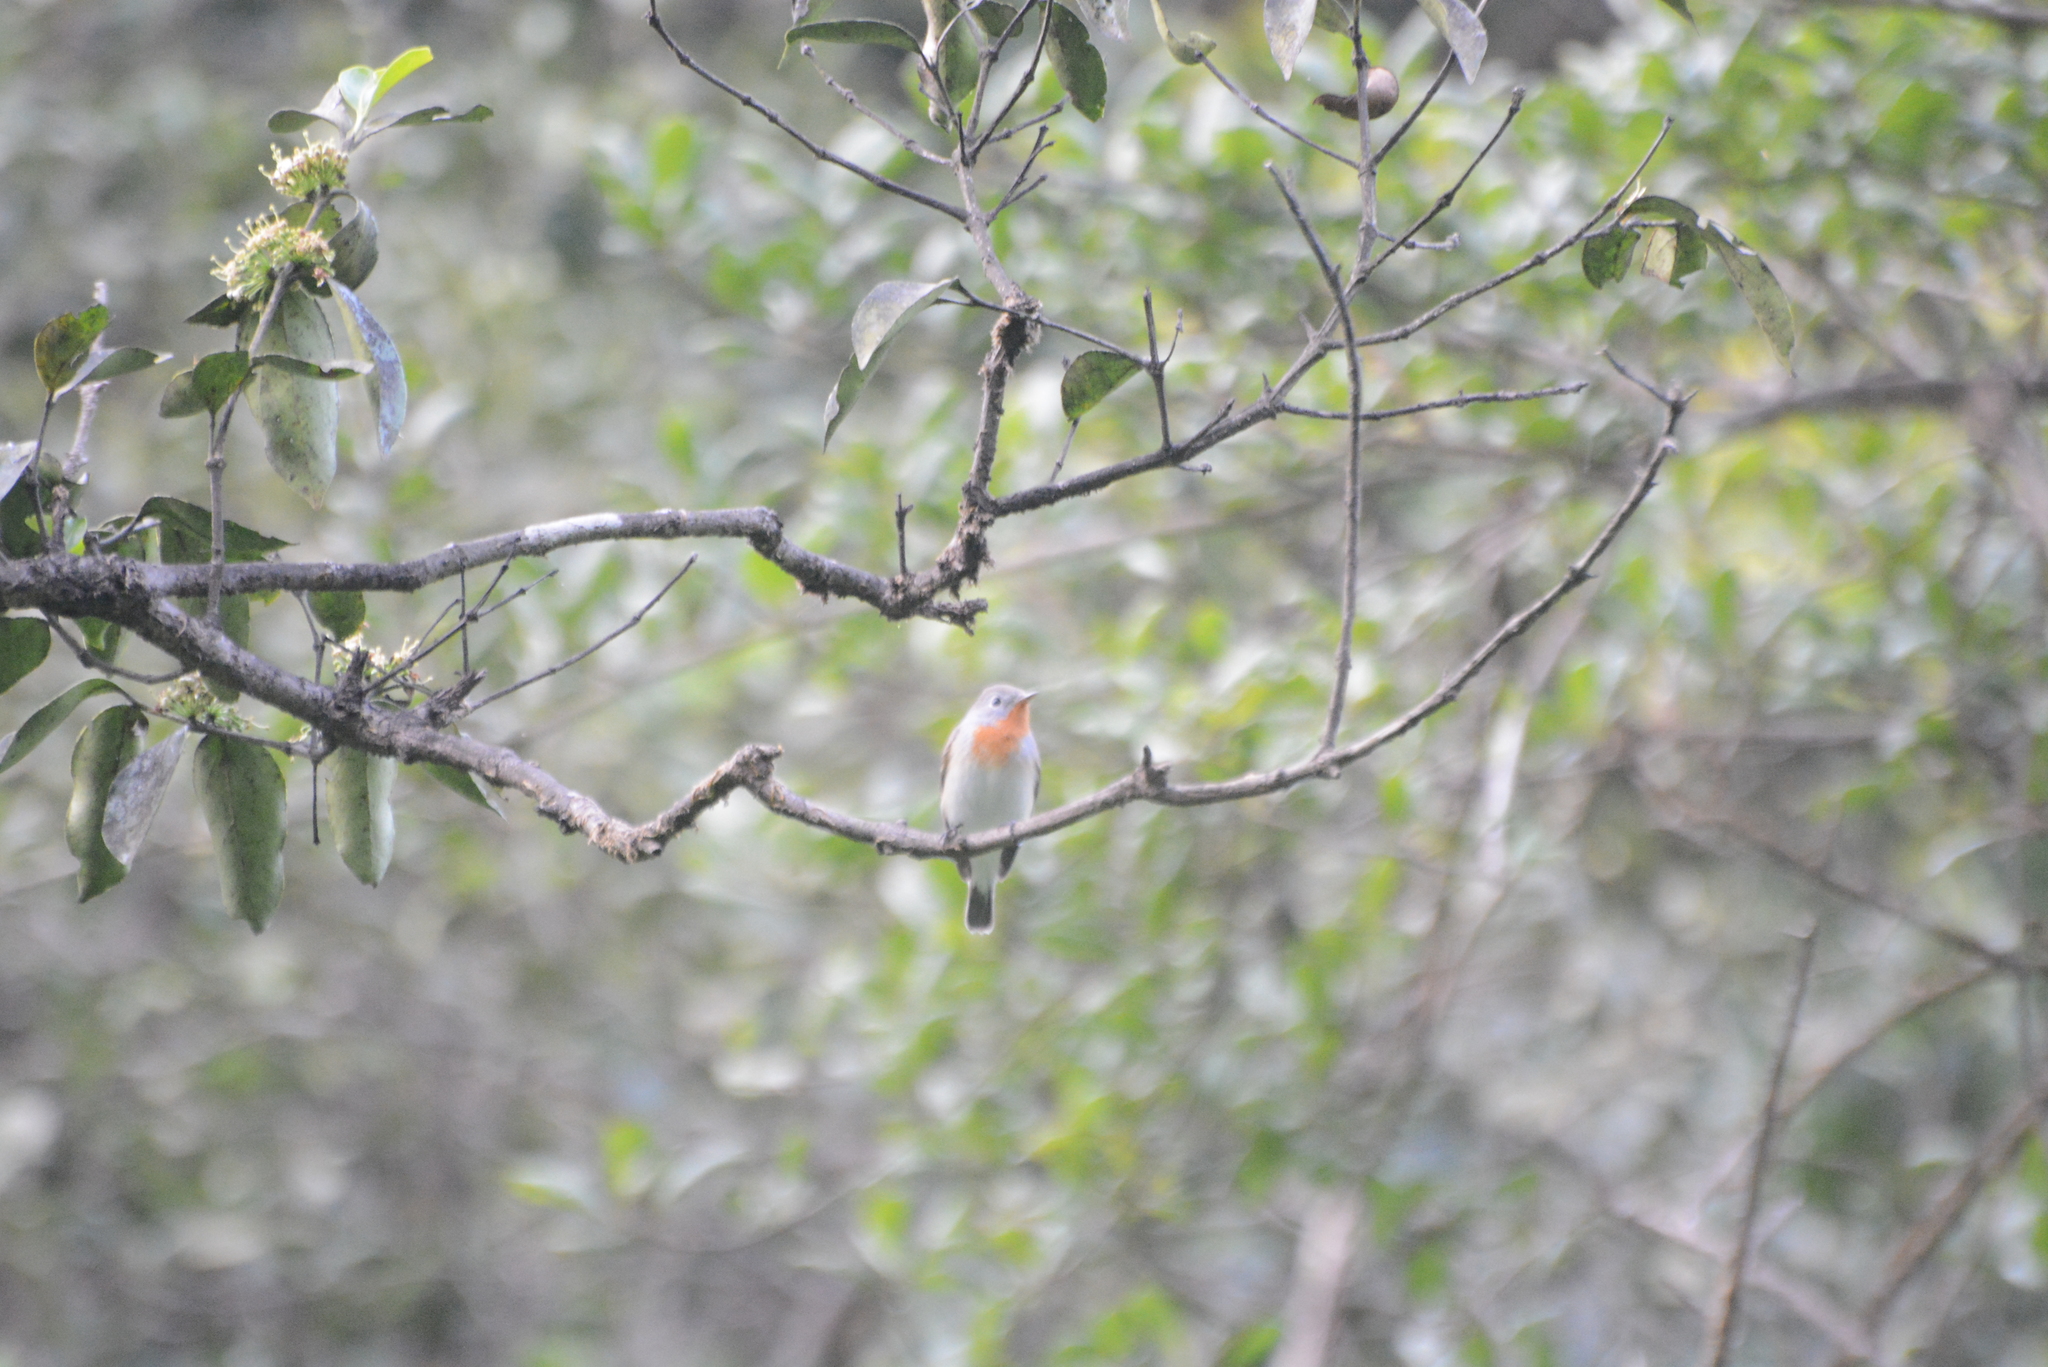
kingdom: Animalia
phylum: Chordata
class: Aves
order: Passeriformes
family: Muscicapidae
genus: Ficedula
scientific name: Ficedula parva
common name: Red-breasted flycatcher
